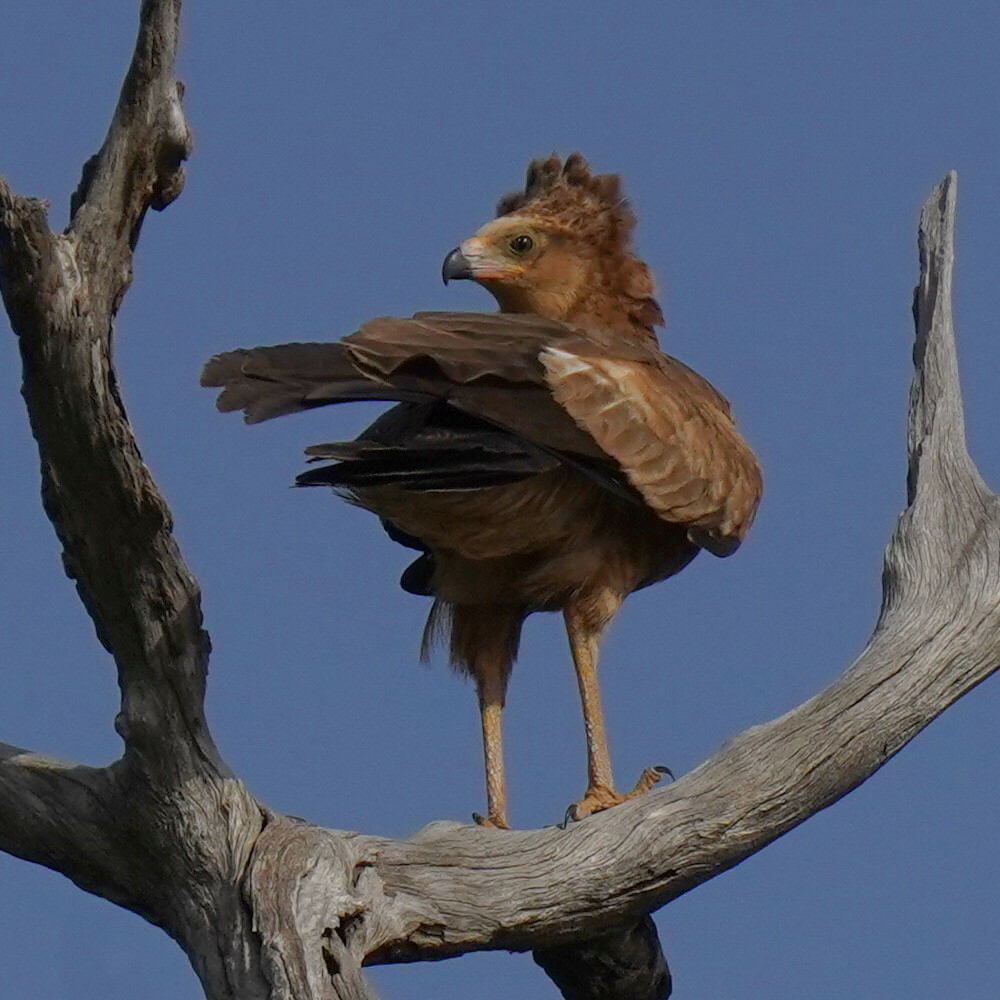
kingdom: Animalia
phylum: Chordata
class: Aves
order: Accipitriformes
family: Accipitridae
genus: Polyboroides
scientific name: Polyboroides typus
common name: African harrier-hawk
